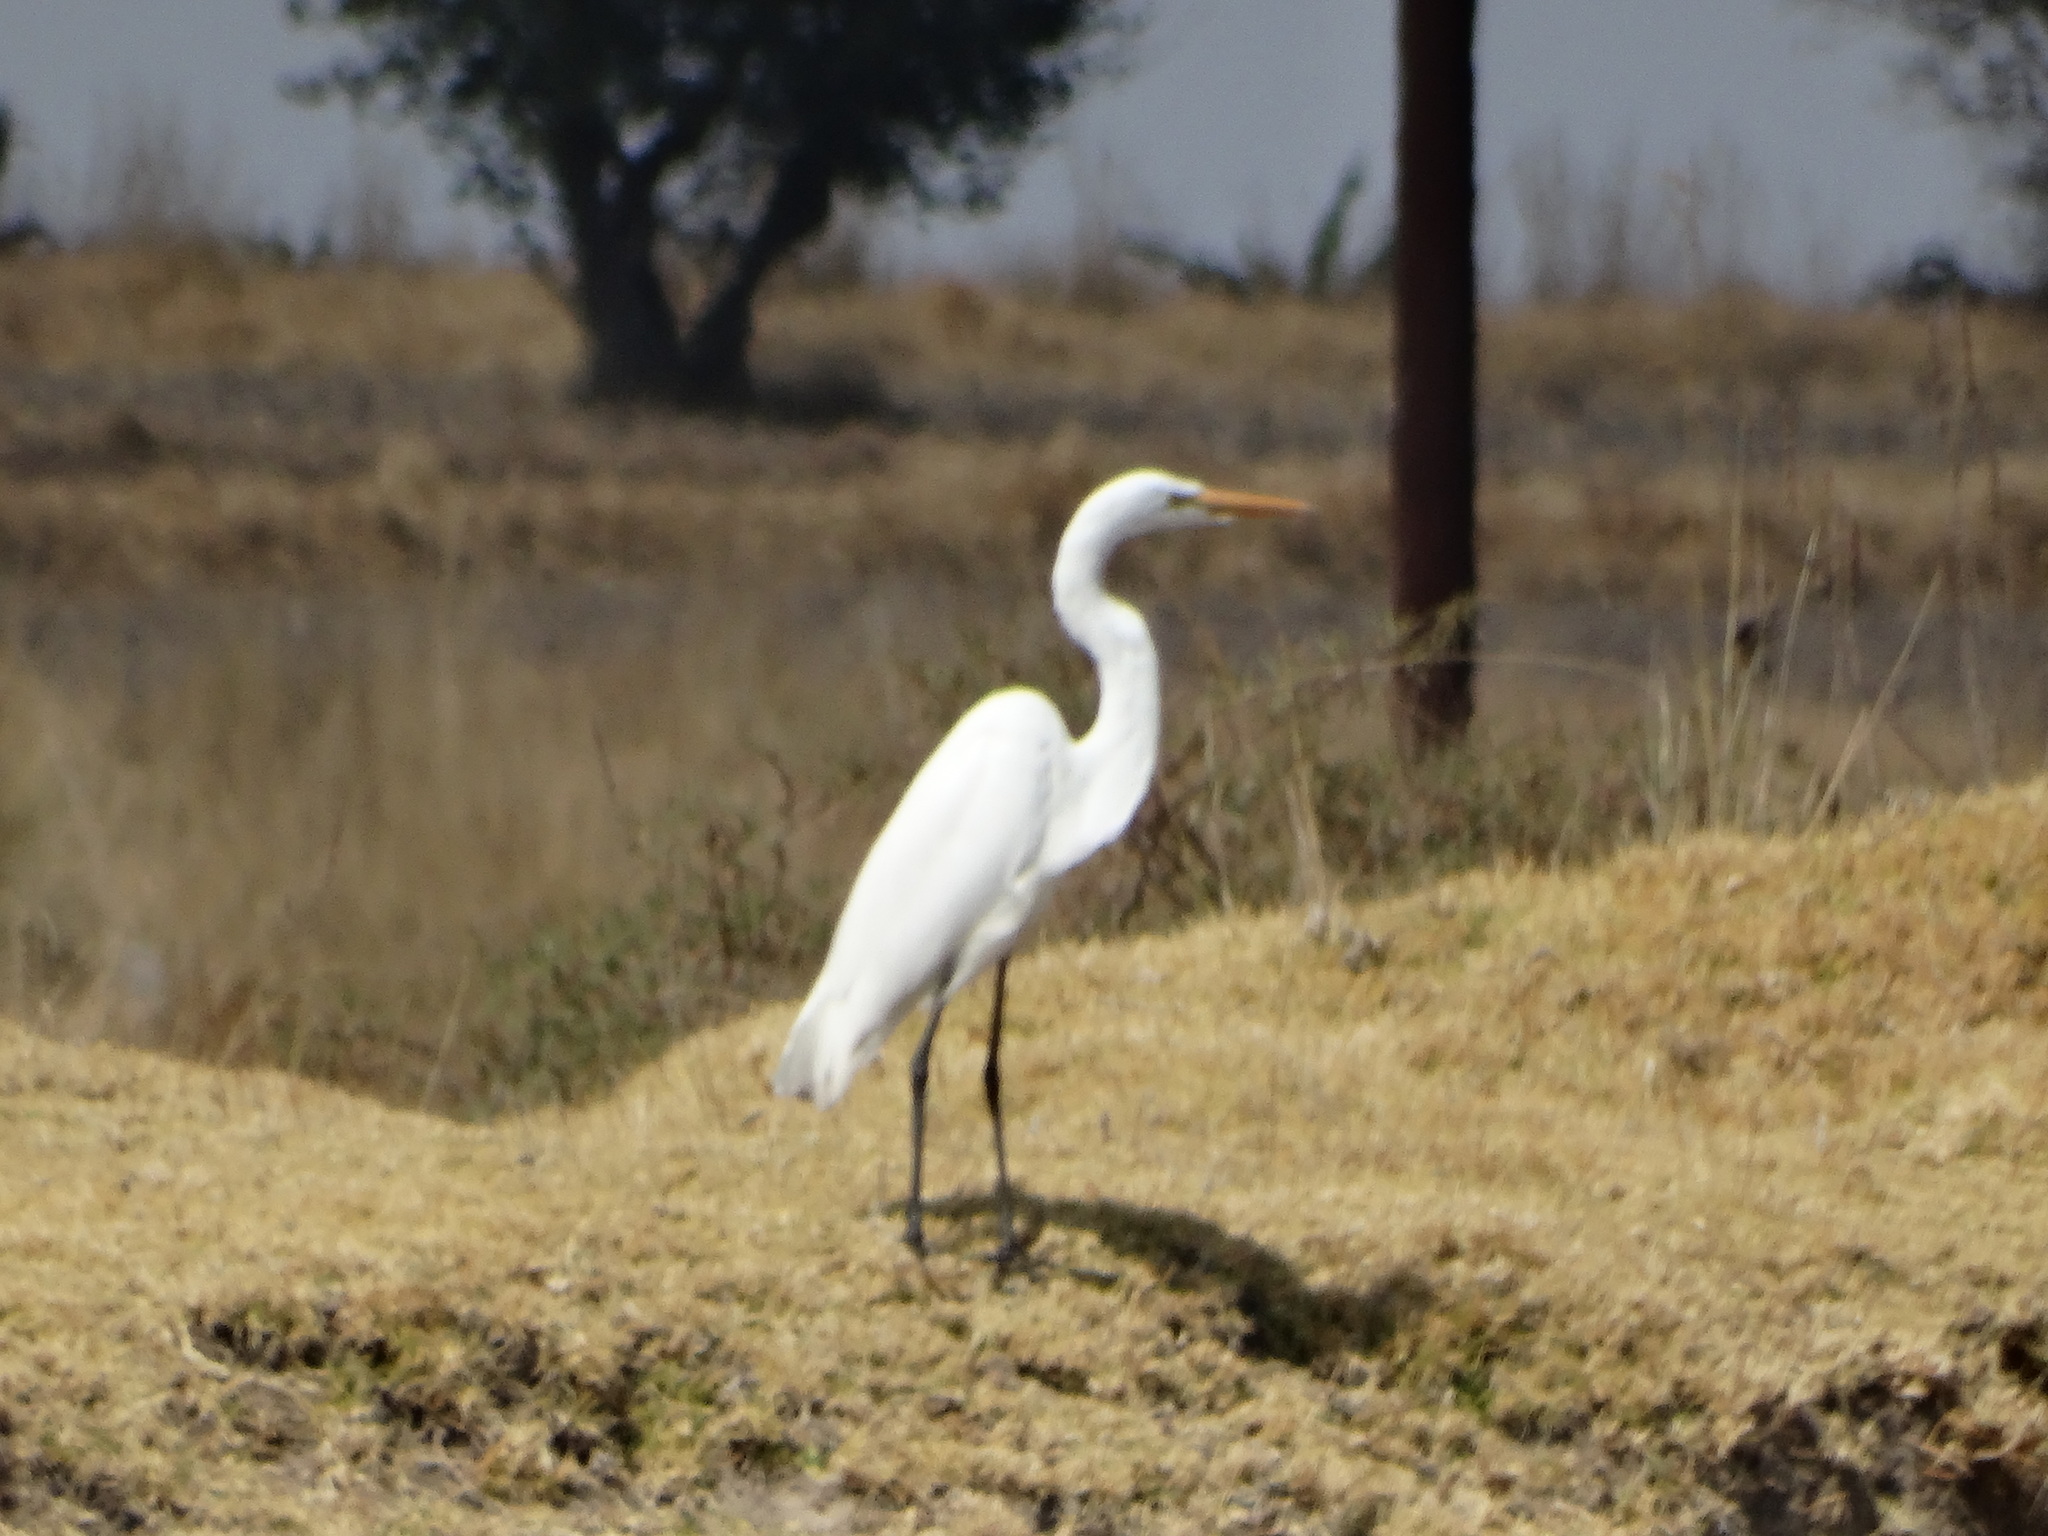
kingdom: Animalia
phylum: Chordata
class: Aves
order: Pelecaniformes
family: Ardeidae
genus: Ardea
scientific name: Ardea alba
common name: Great egret
